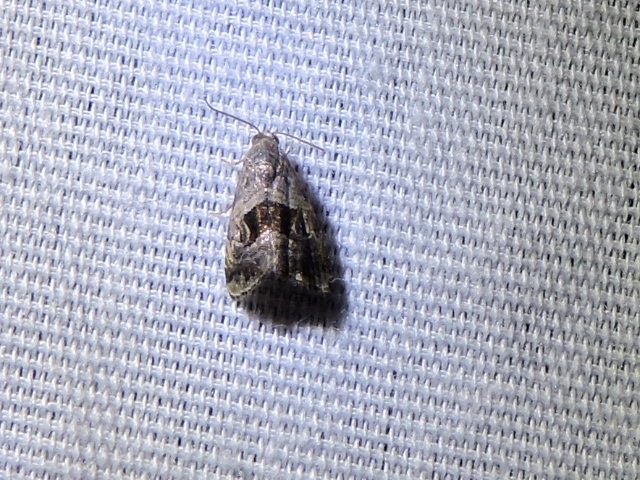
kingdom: Animalia
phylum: Arthropoda
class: Insecta
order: Lepidoptera
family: Noctuidae
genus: Tripudia
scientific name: Tripudia quadrifera
